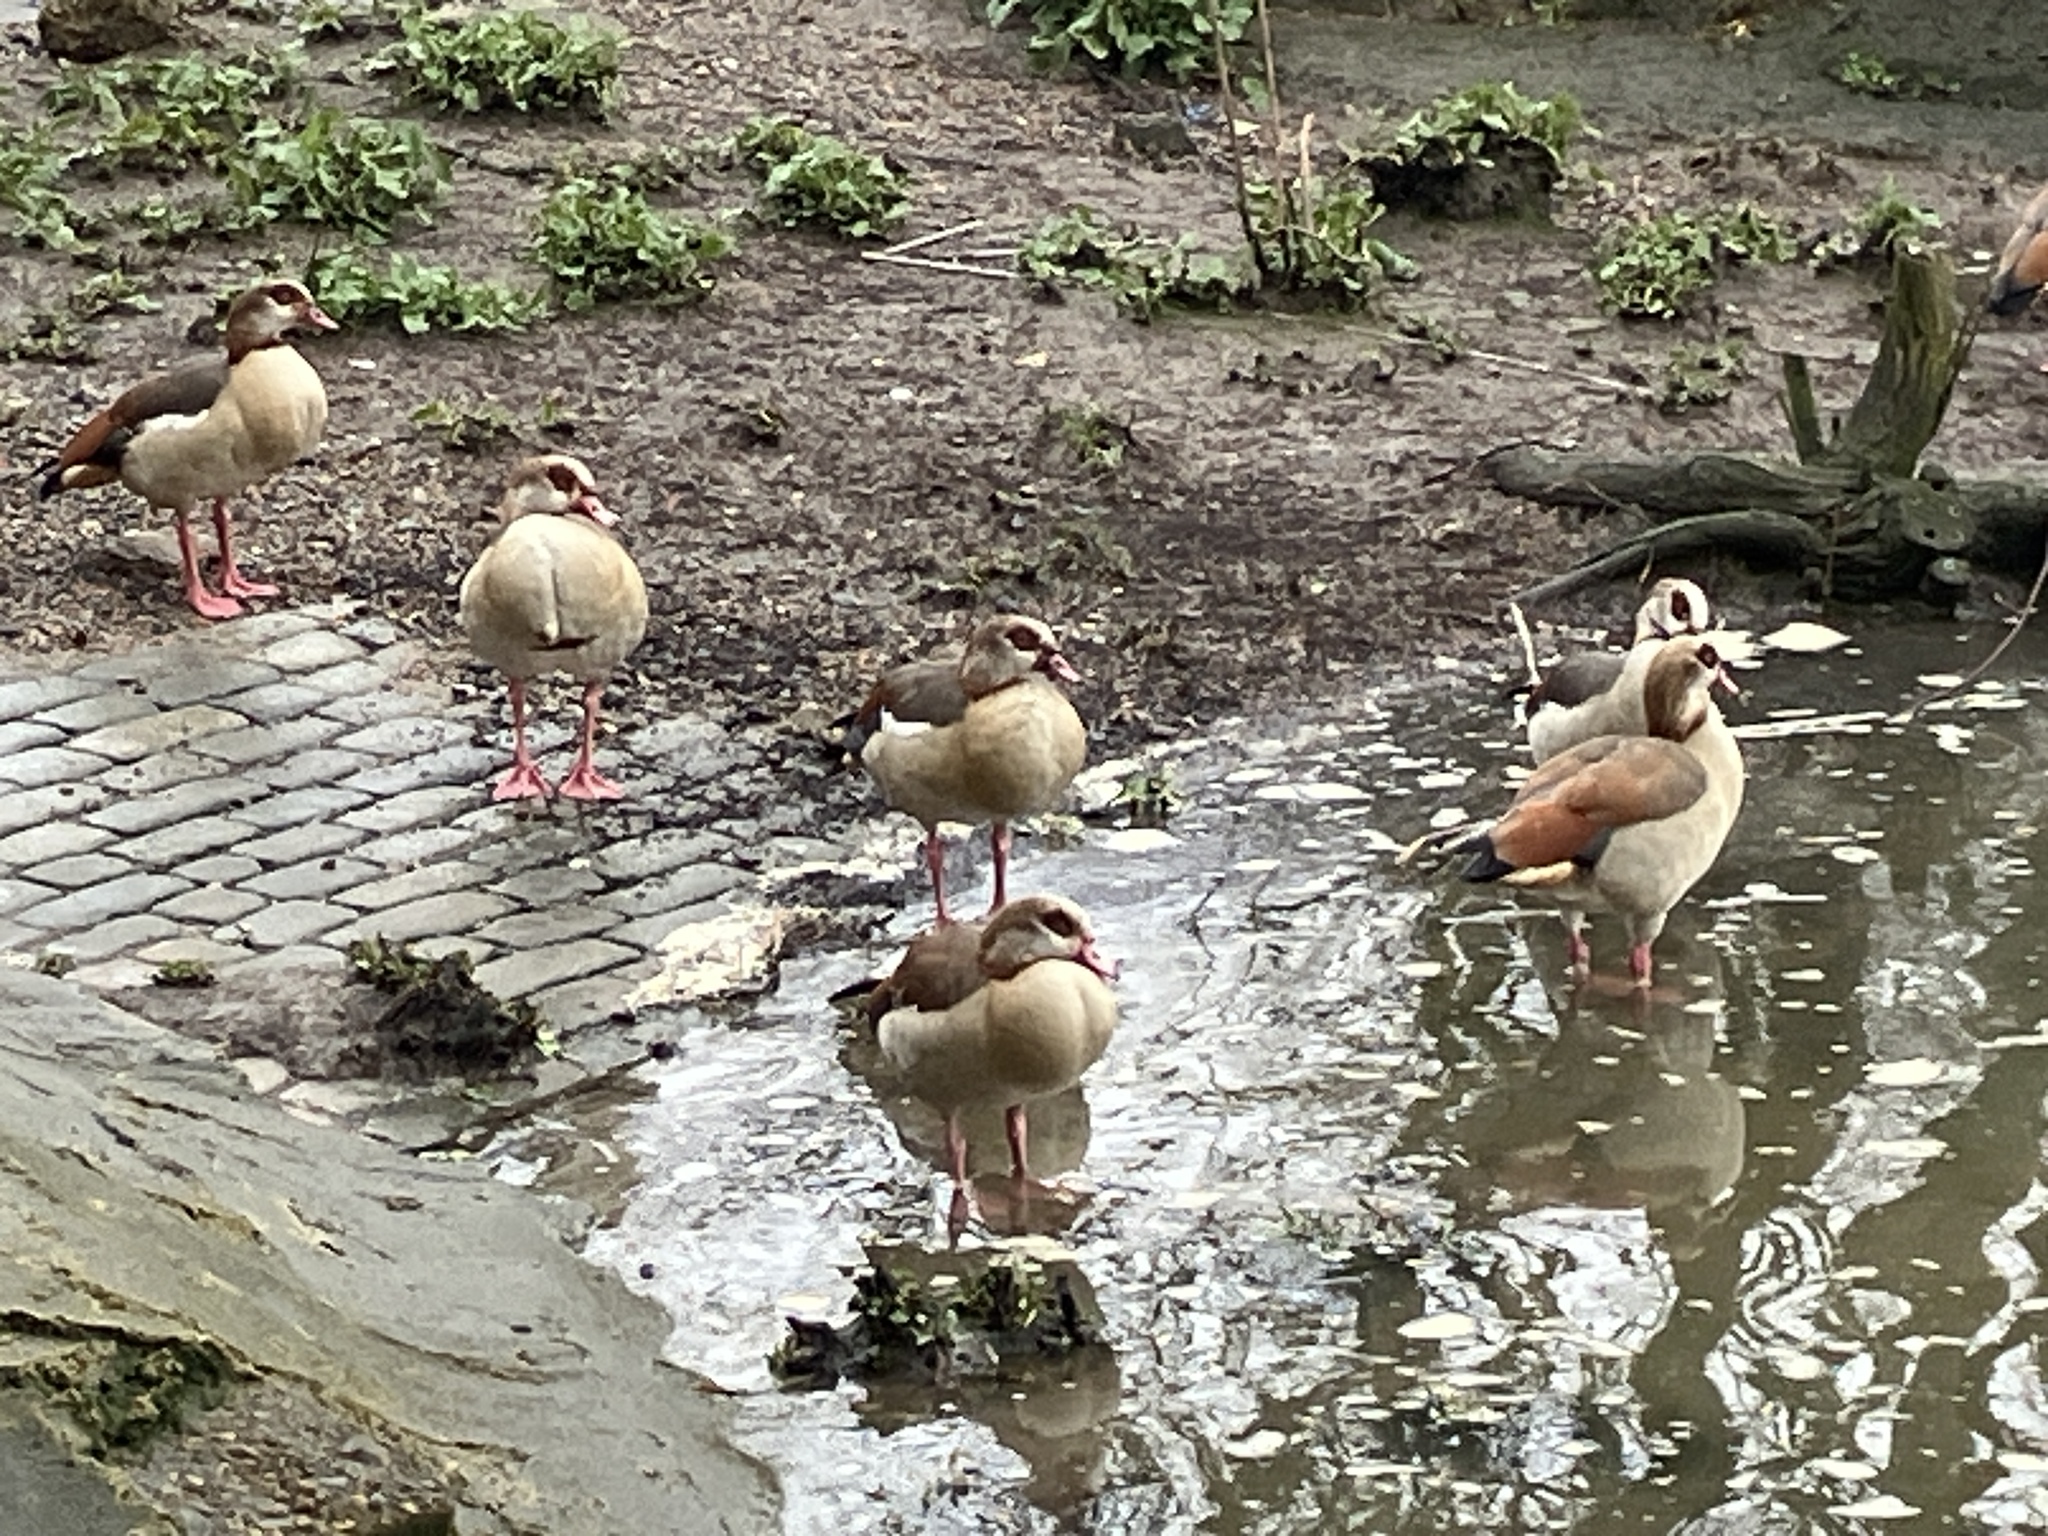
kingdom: Animalia
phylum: Chordata
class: Aves
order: Anseriformes
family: Anatidae
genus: Alopochen
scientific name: Alopochen aegyptiaca
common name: Egyptian goose
